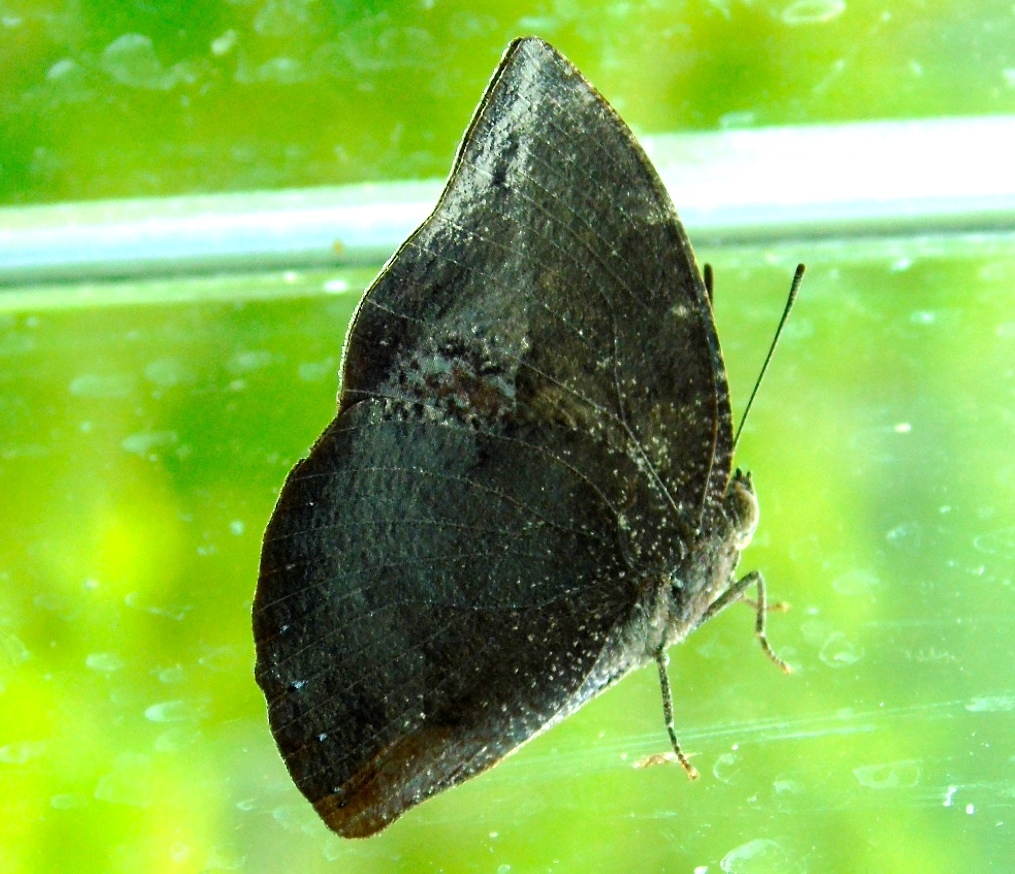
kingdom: Animalia
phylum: Arthropoda
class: Insecta
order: Lepidoptera
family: Nymphalidae
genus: Anaea
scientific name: Anaea
